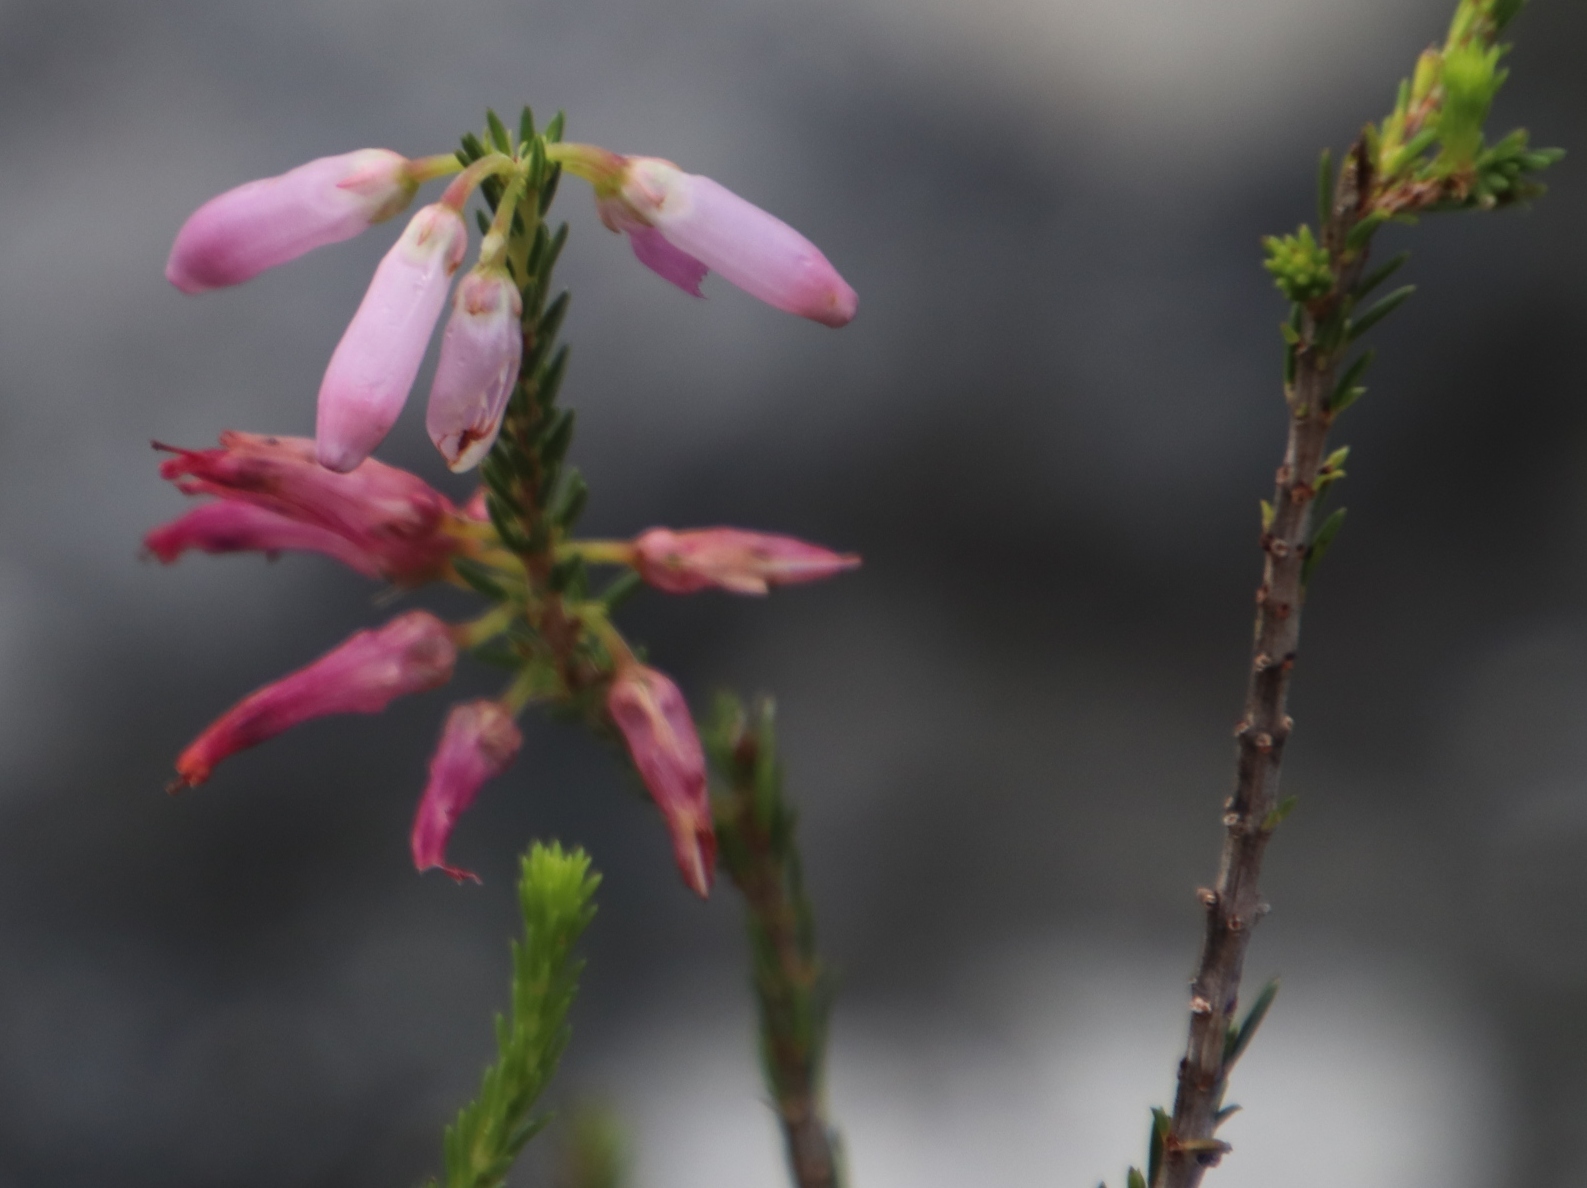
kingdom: Plantae
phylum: Tracheophyta
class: Magnoliopsida
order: Ericales
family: Ericaceae
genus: Erica
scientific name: Erica mammosa
